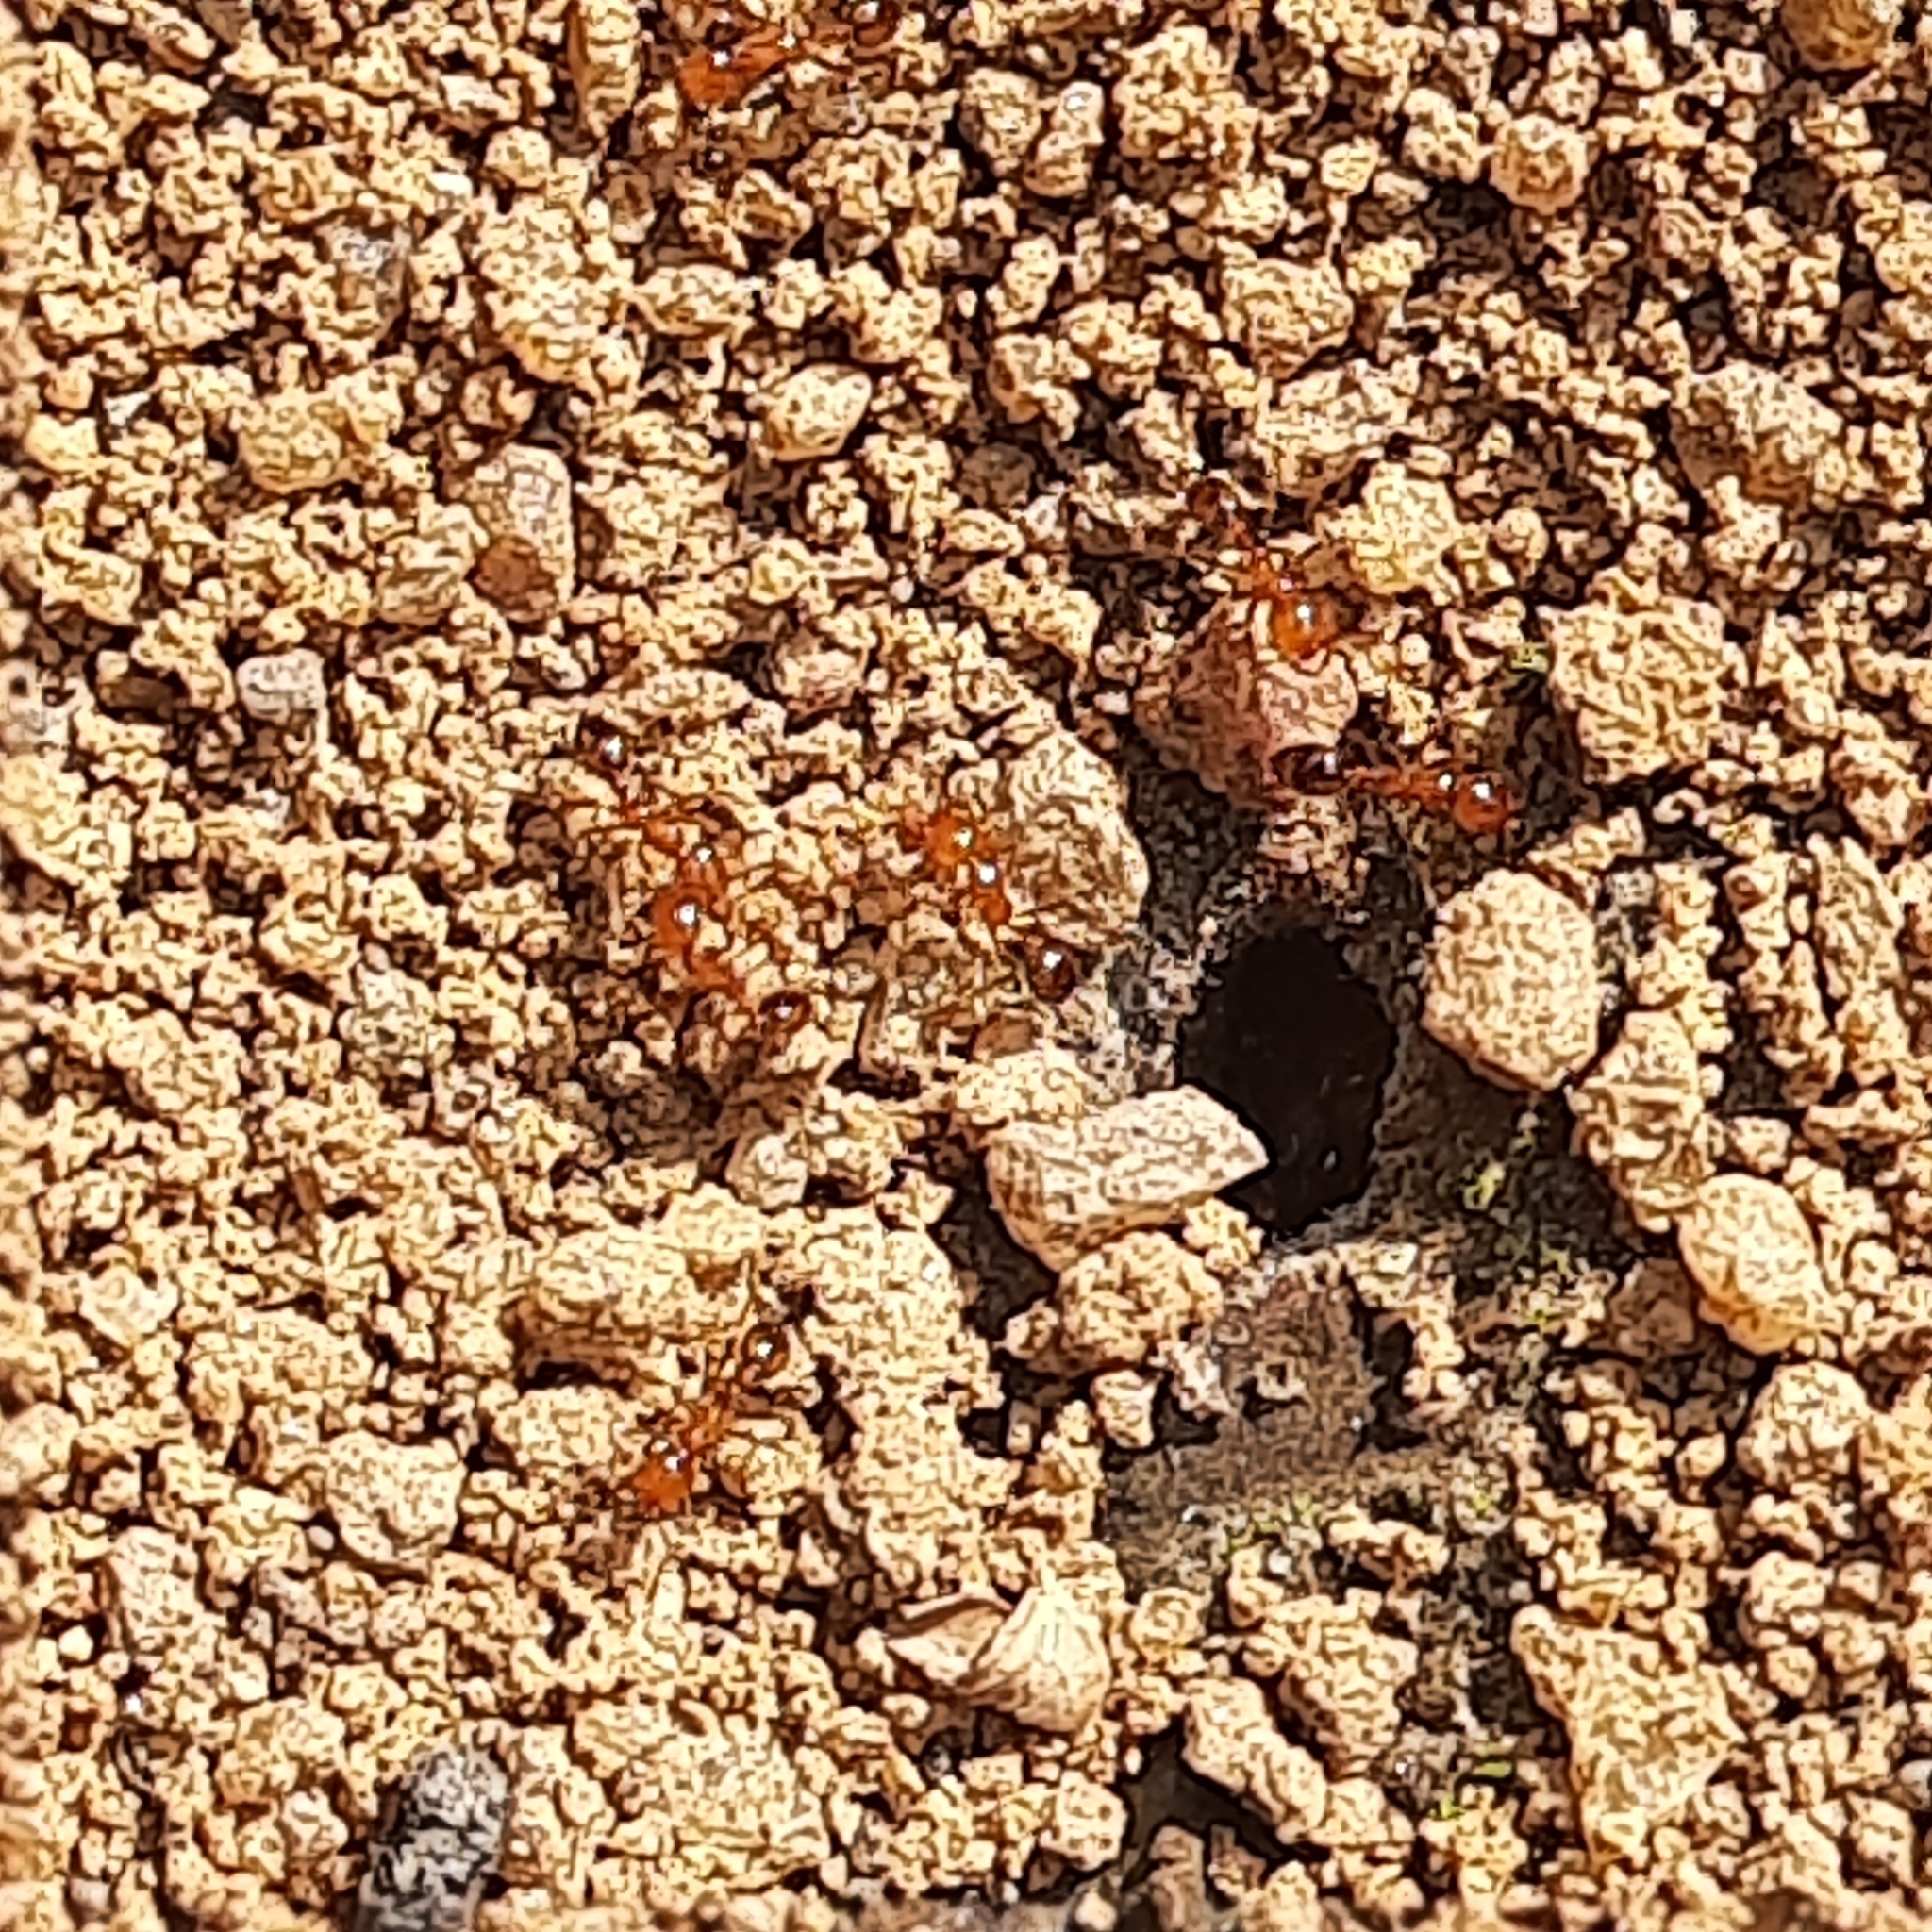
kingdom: Animalia
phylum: Arthropoda
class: Insecta
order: Hymenoptera
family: Formicidae
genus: Solenopsis
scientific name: Solenopsis geminata
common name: Tropical fire ant
